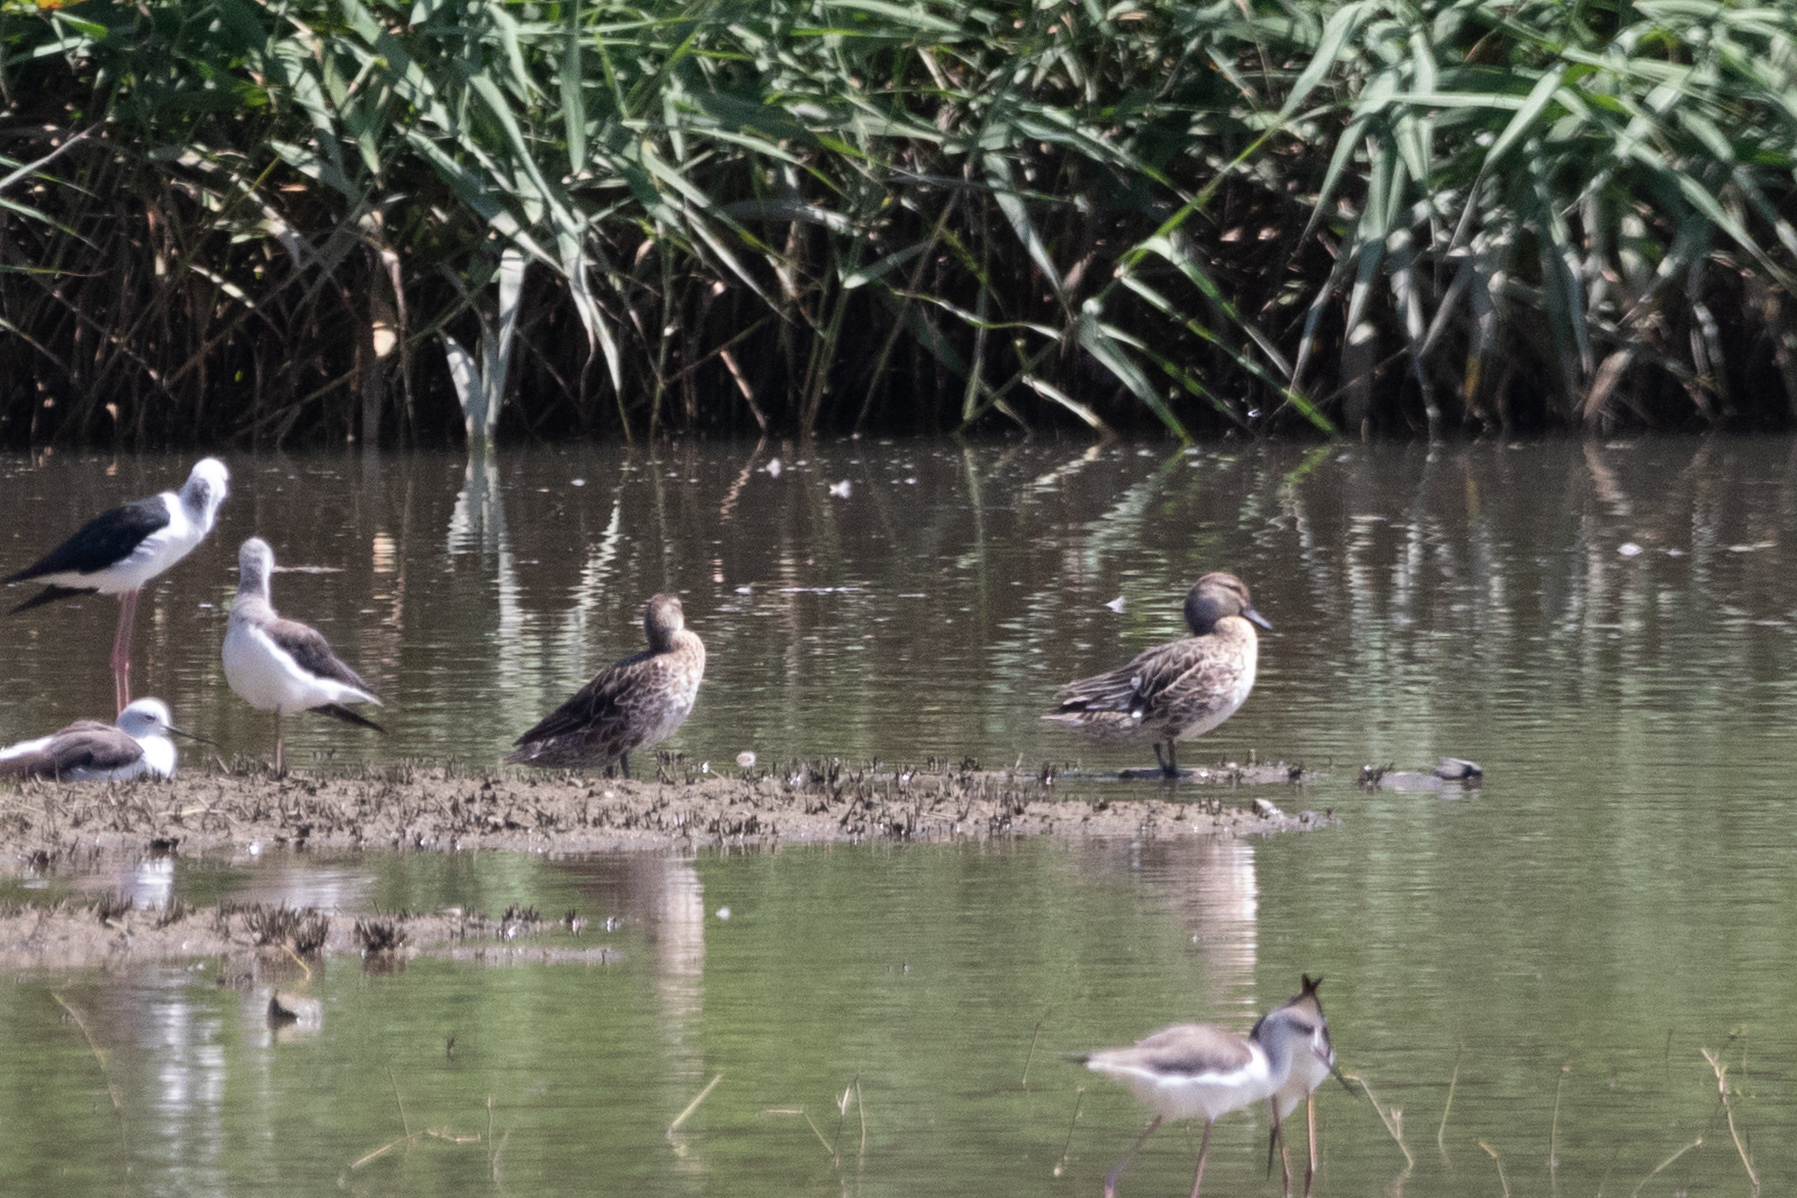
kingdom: Animalia
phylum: Chordata
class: Aves
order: Anseriformes
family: Anatidae
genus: Spatula
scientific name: Spatula querquedula
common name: Garganey
